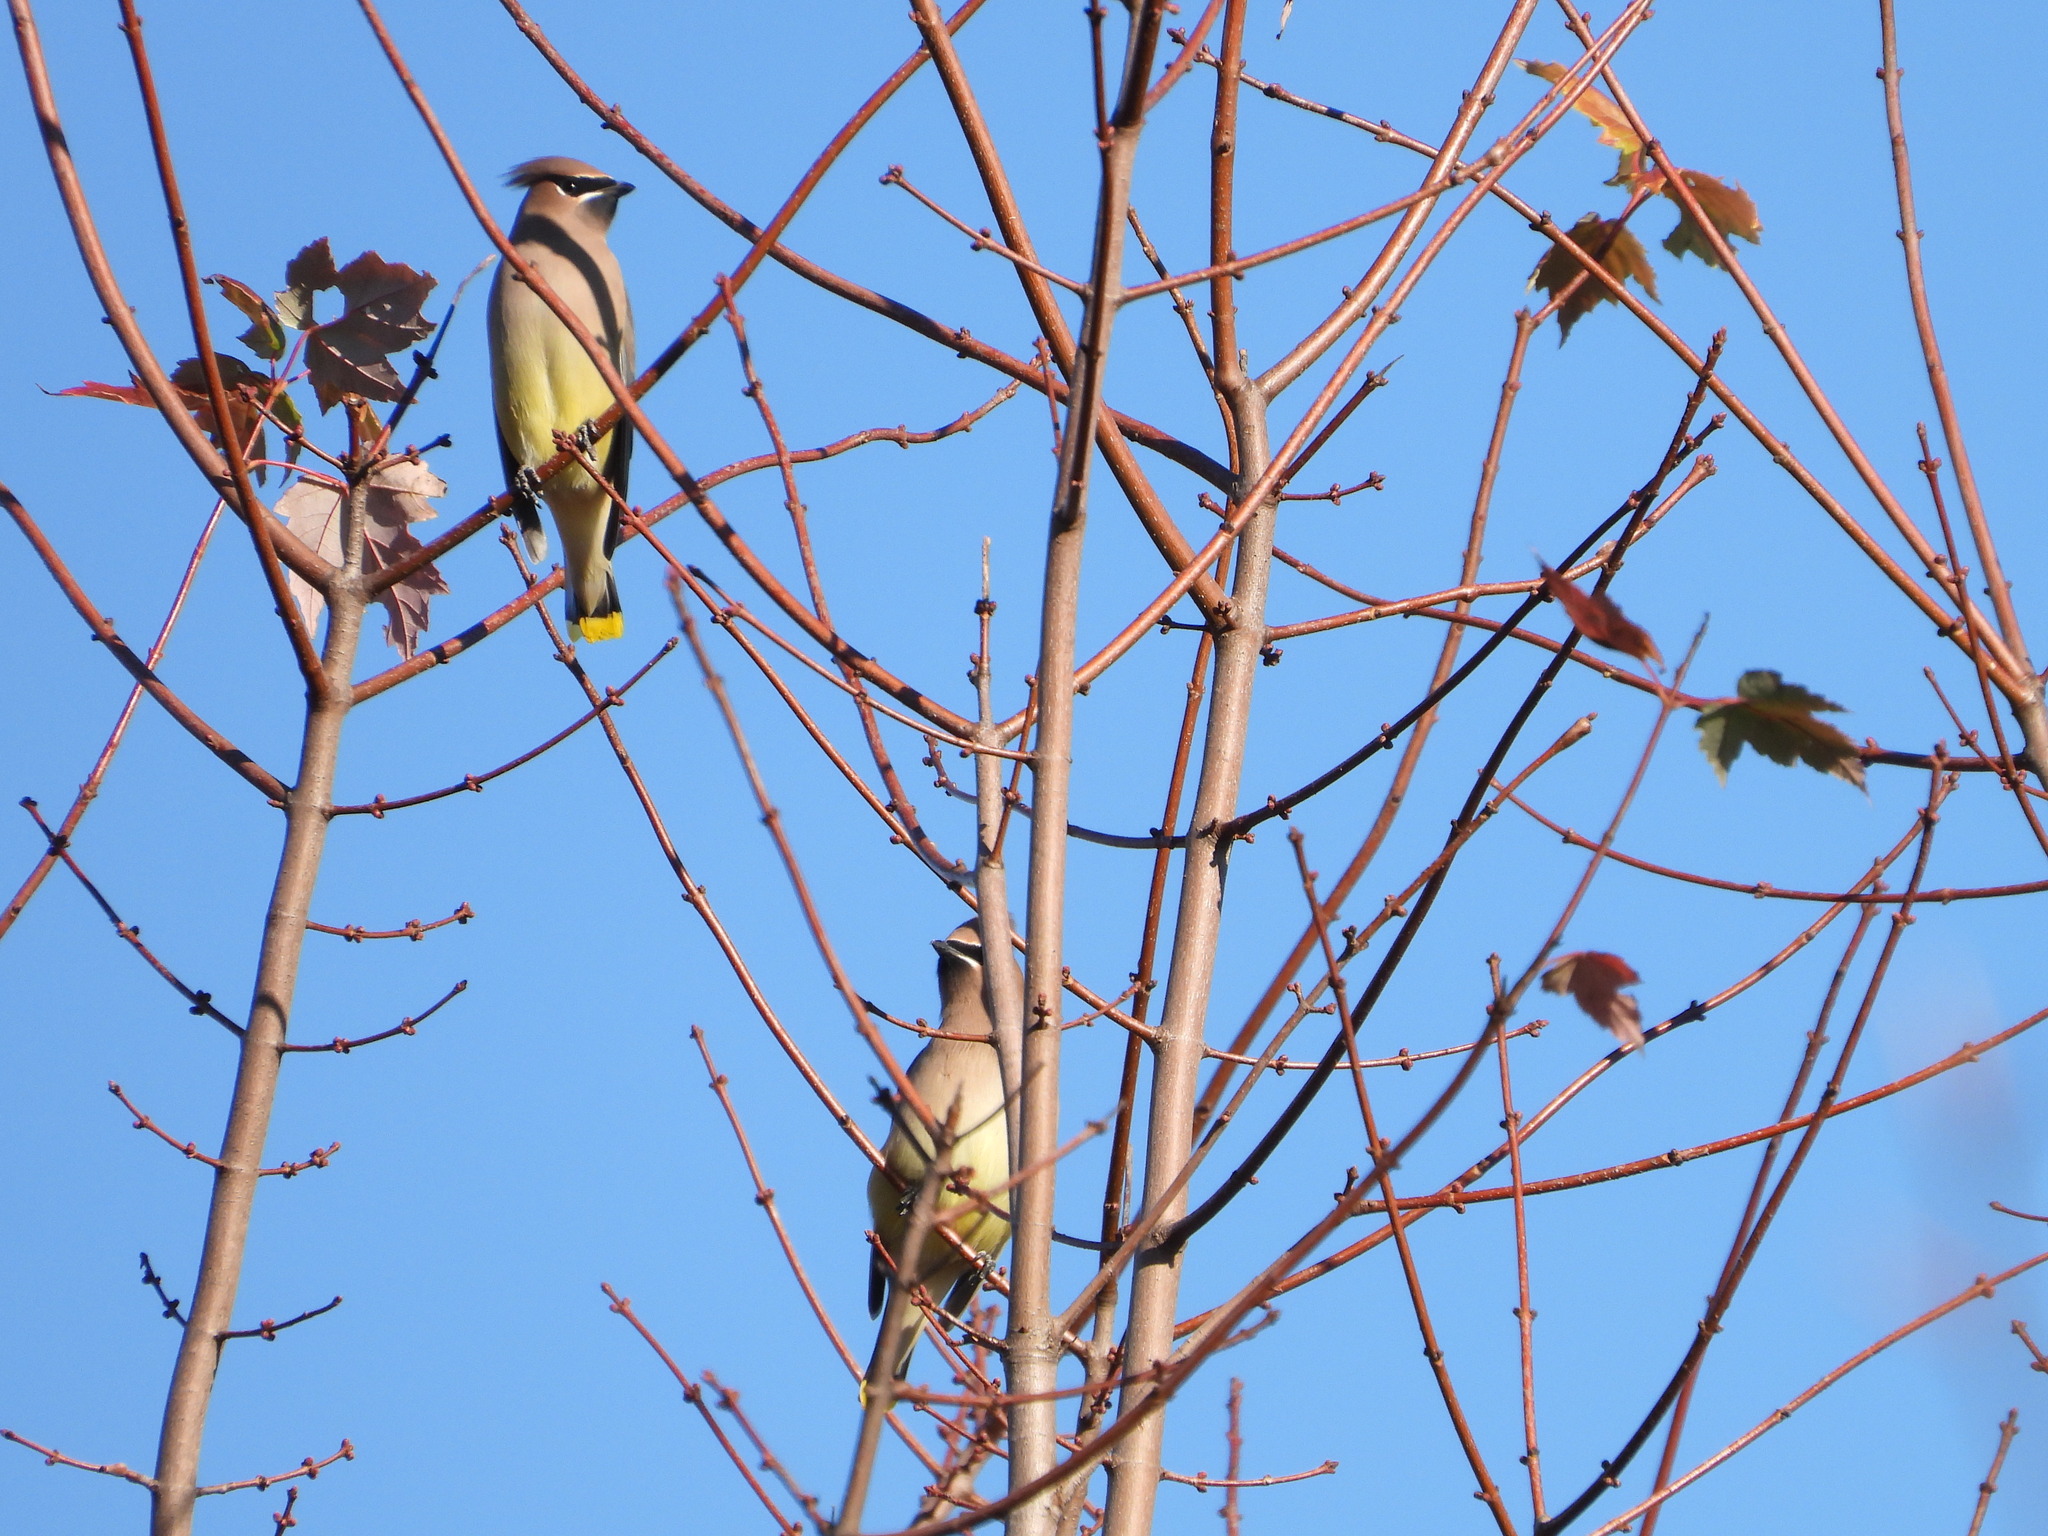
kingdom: Animalia
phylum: Chordata
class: Aves
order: Passeriformes
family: Bombycillidae
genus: Bombycilla
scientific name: Bombycilla cedrorum
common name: Cedar waxwing
